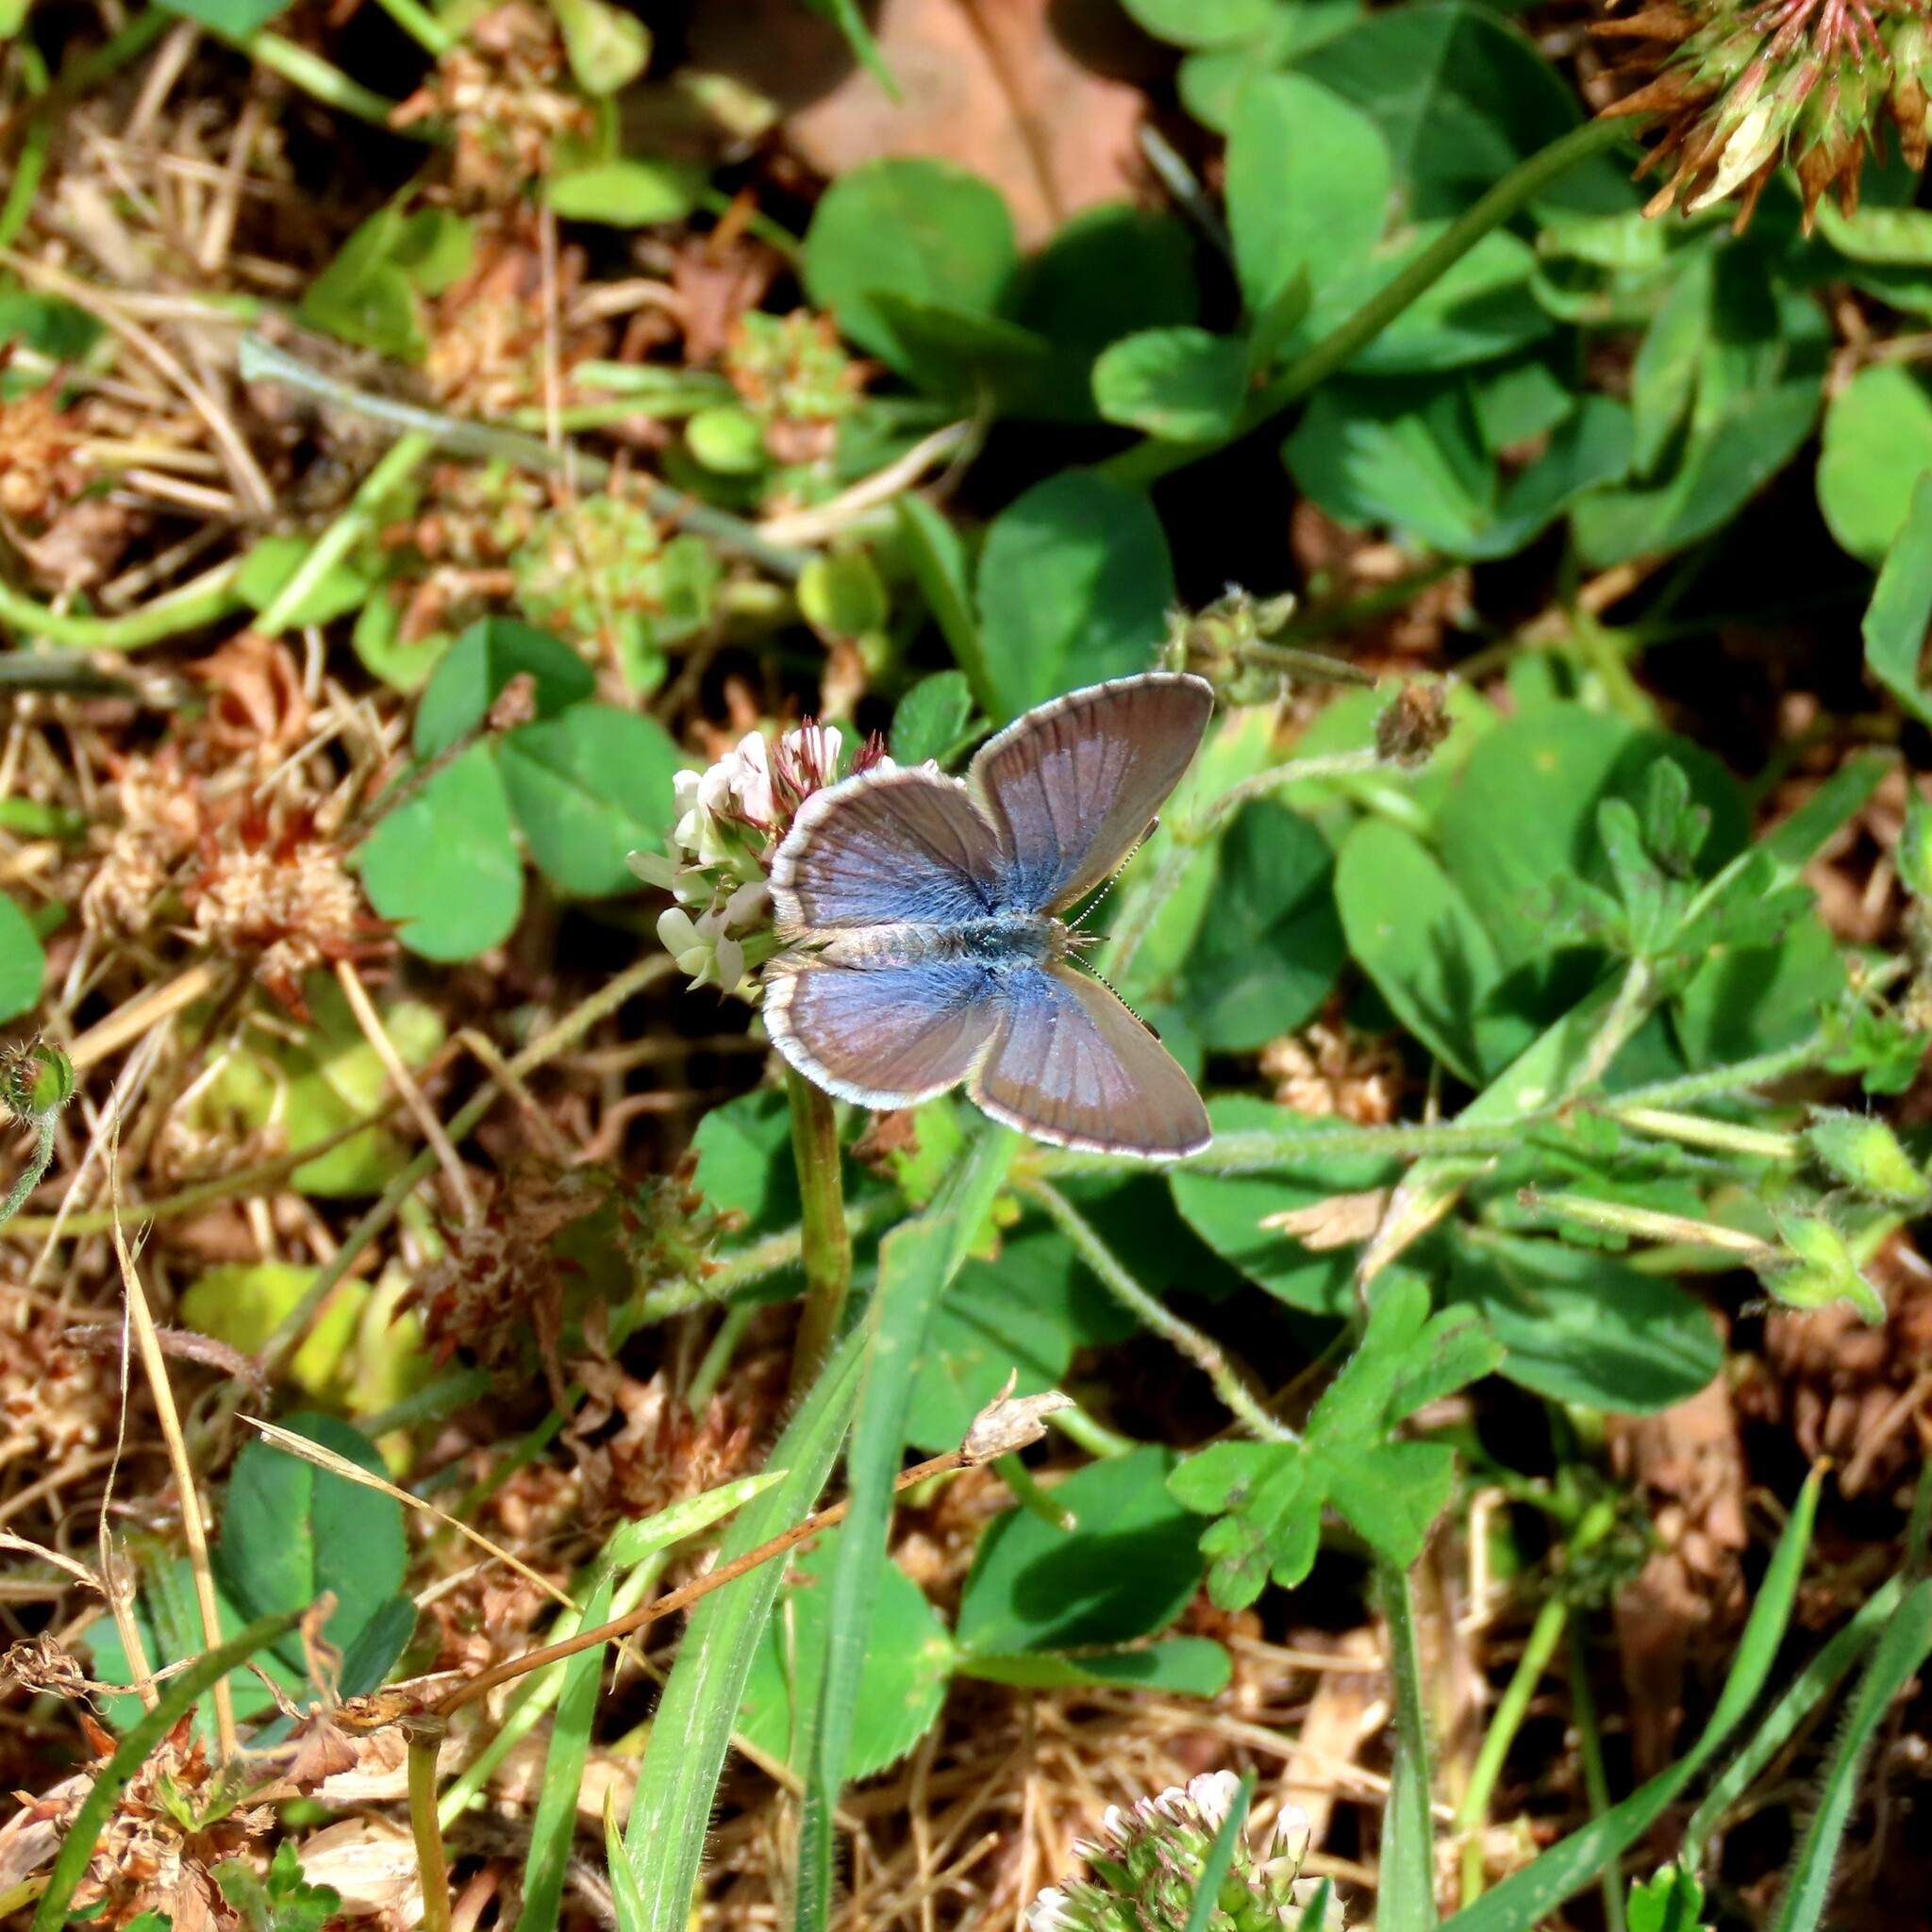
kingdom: Animalia
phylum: Arthropoda
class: Insecta
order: Lepidoptera
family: Lycaenidae
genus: Zizina
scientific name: Zizina otis
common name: Lesser grass blue
